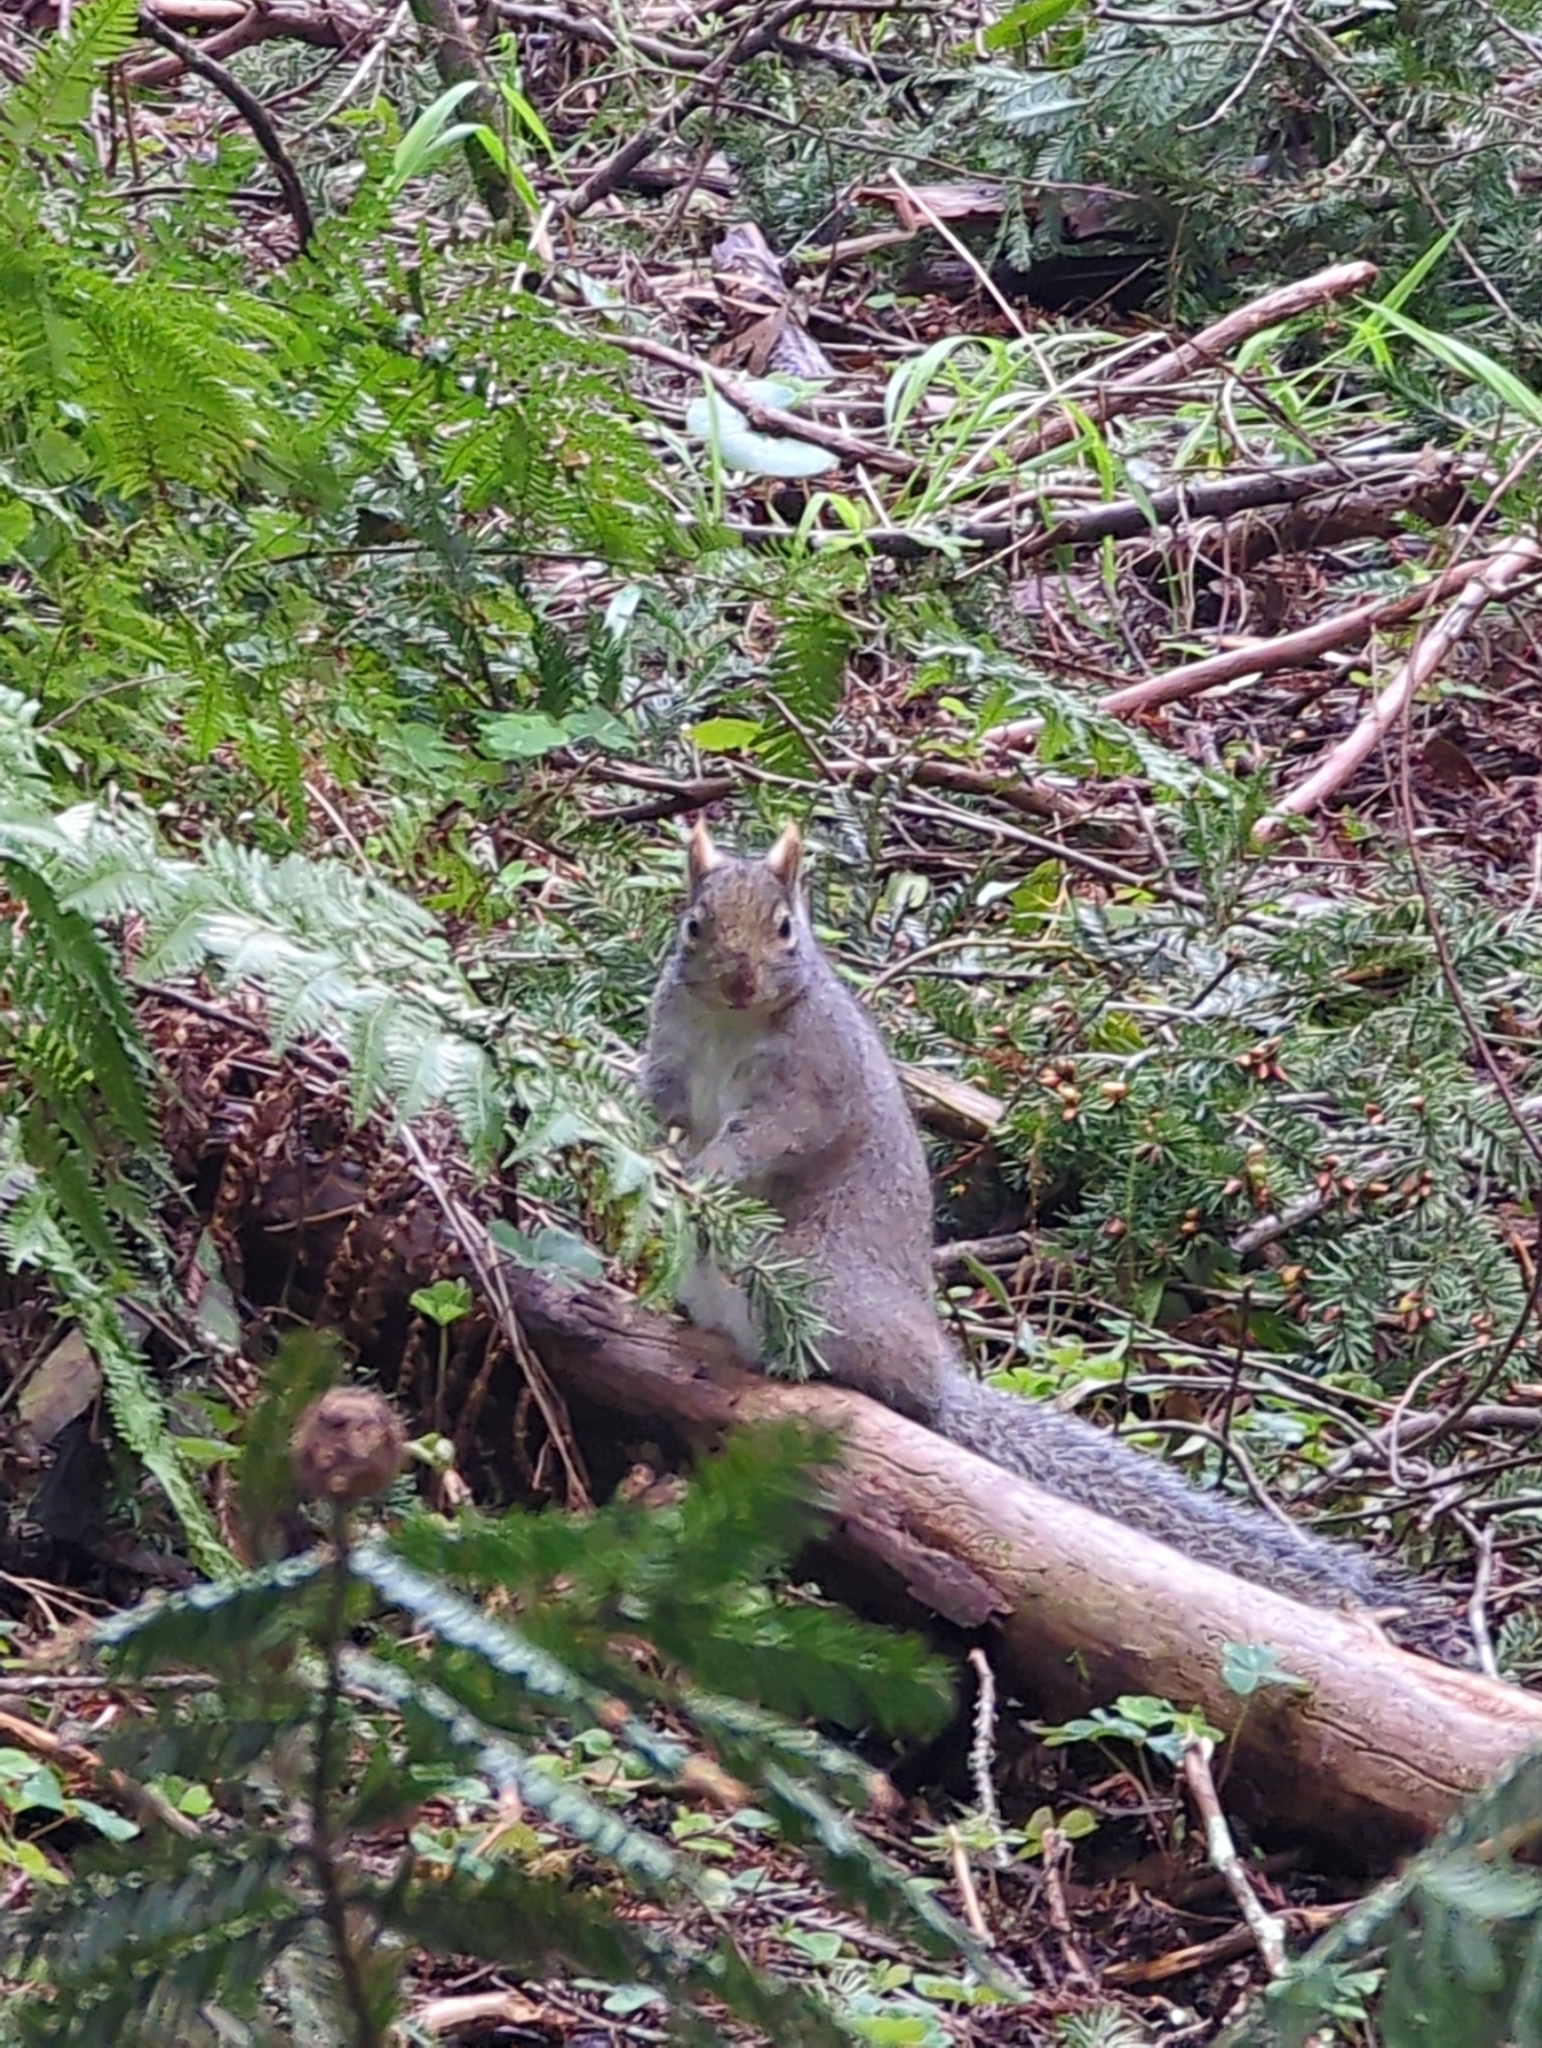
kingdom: Animalia
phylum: Chordata
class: Mammalia
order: Rodentia
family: Sciuridae
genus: Sciurus
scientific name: Sciurus carolinensis
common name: Eastern gray squirrel
